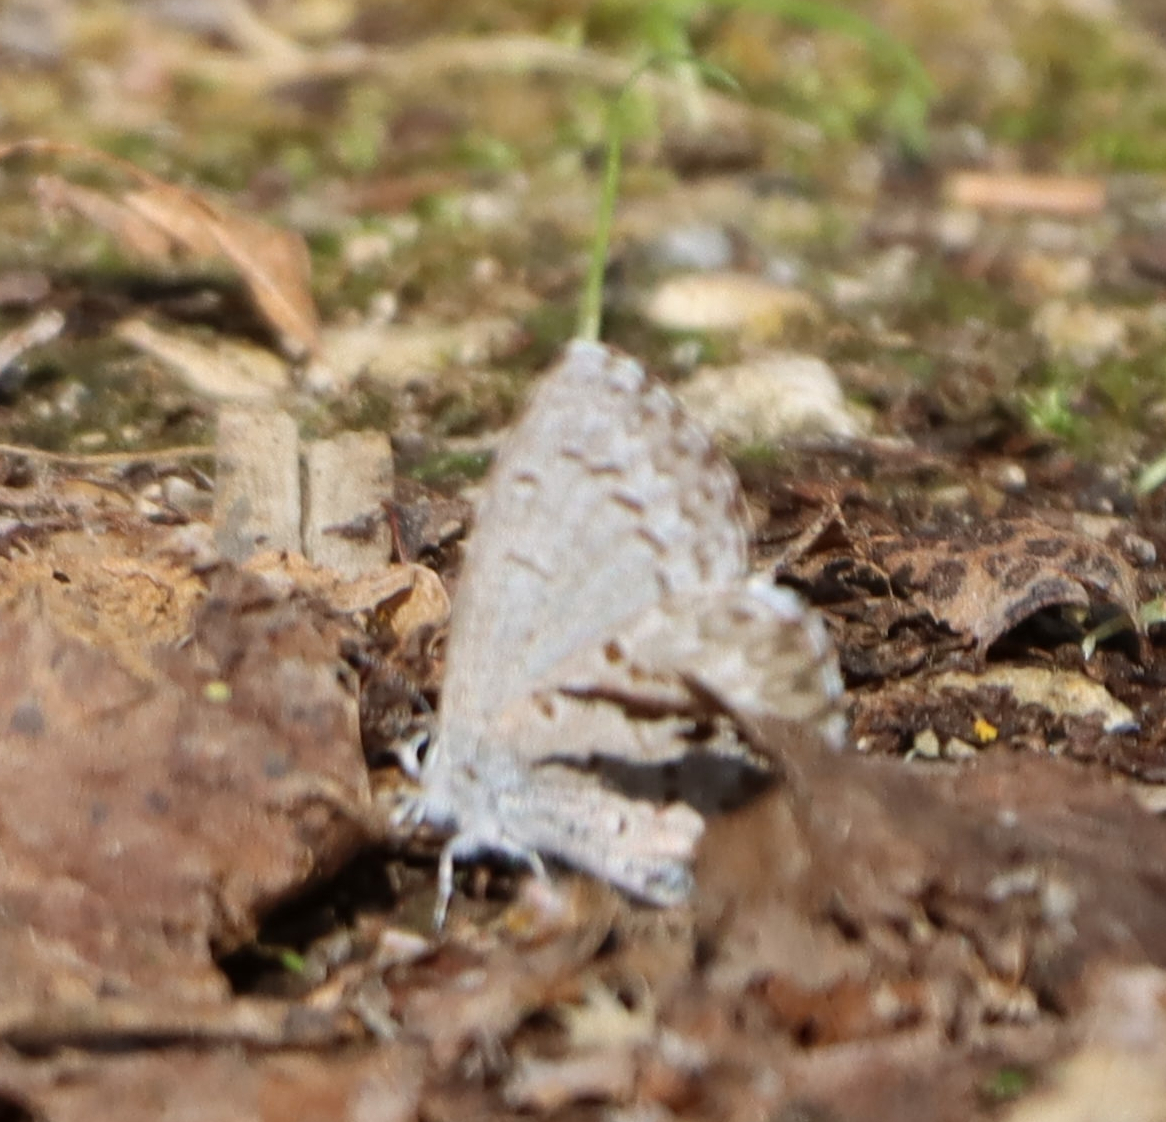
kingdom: Animalia
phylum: Arthropoda
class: Insecta
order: Lepidoptera
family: Lycaenidae
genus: Celastrina
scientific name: Celastrina lucia
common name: Lucia azure
